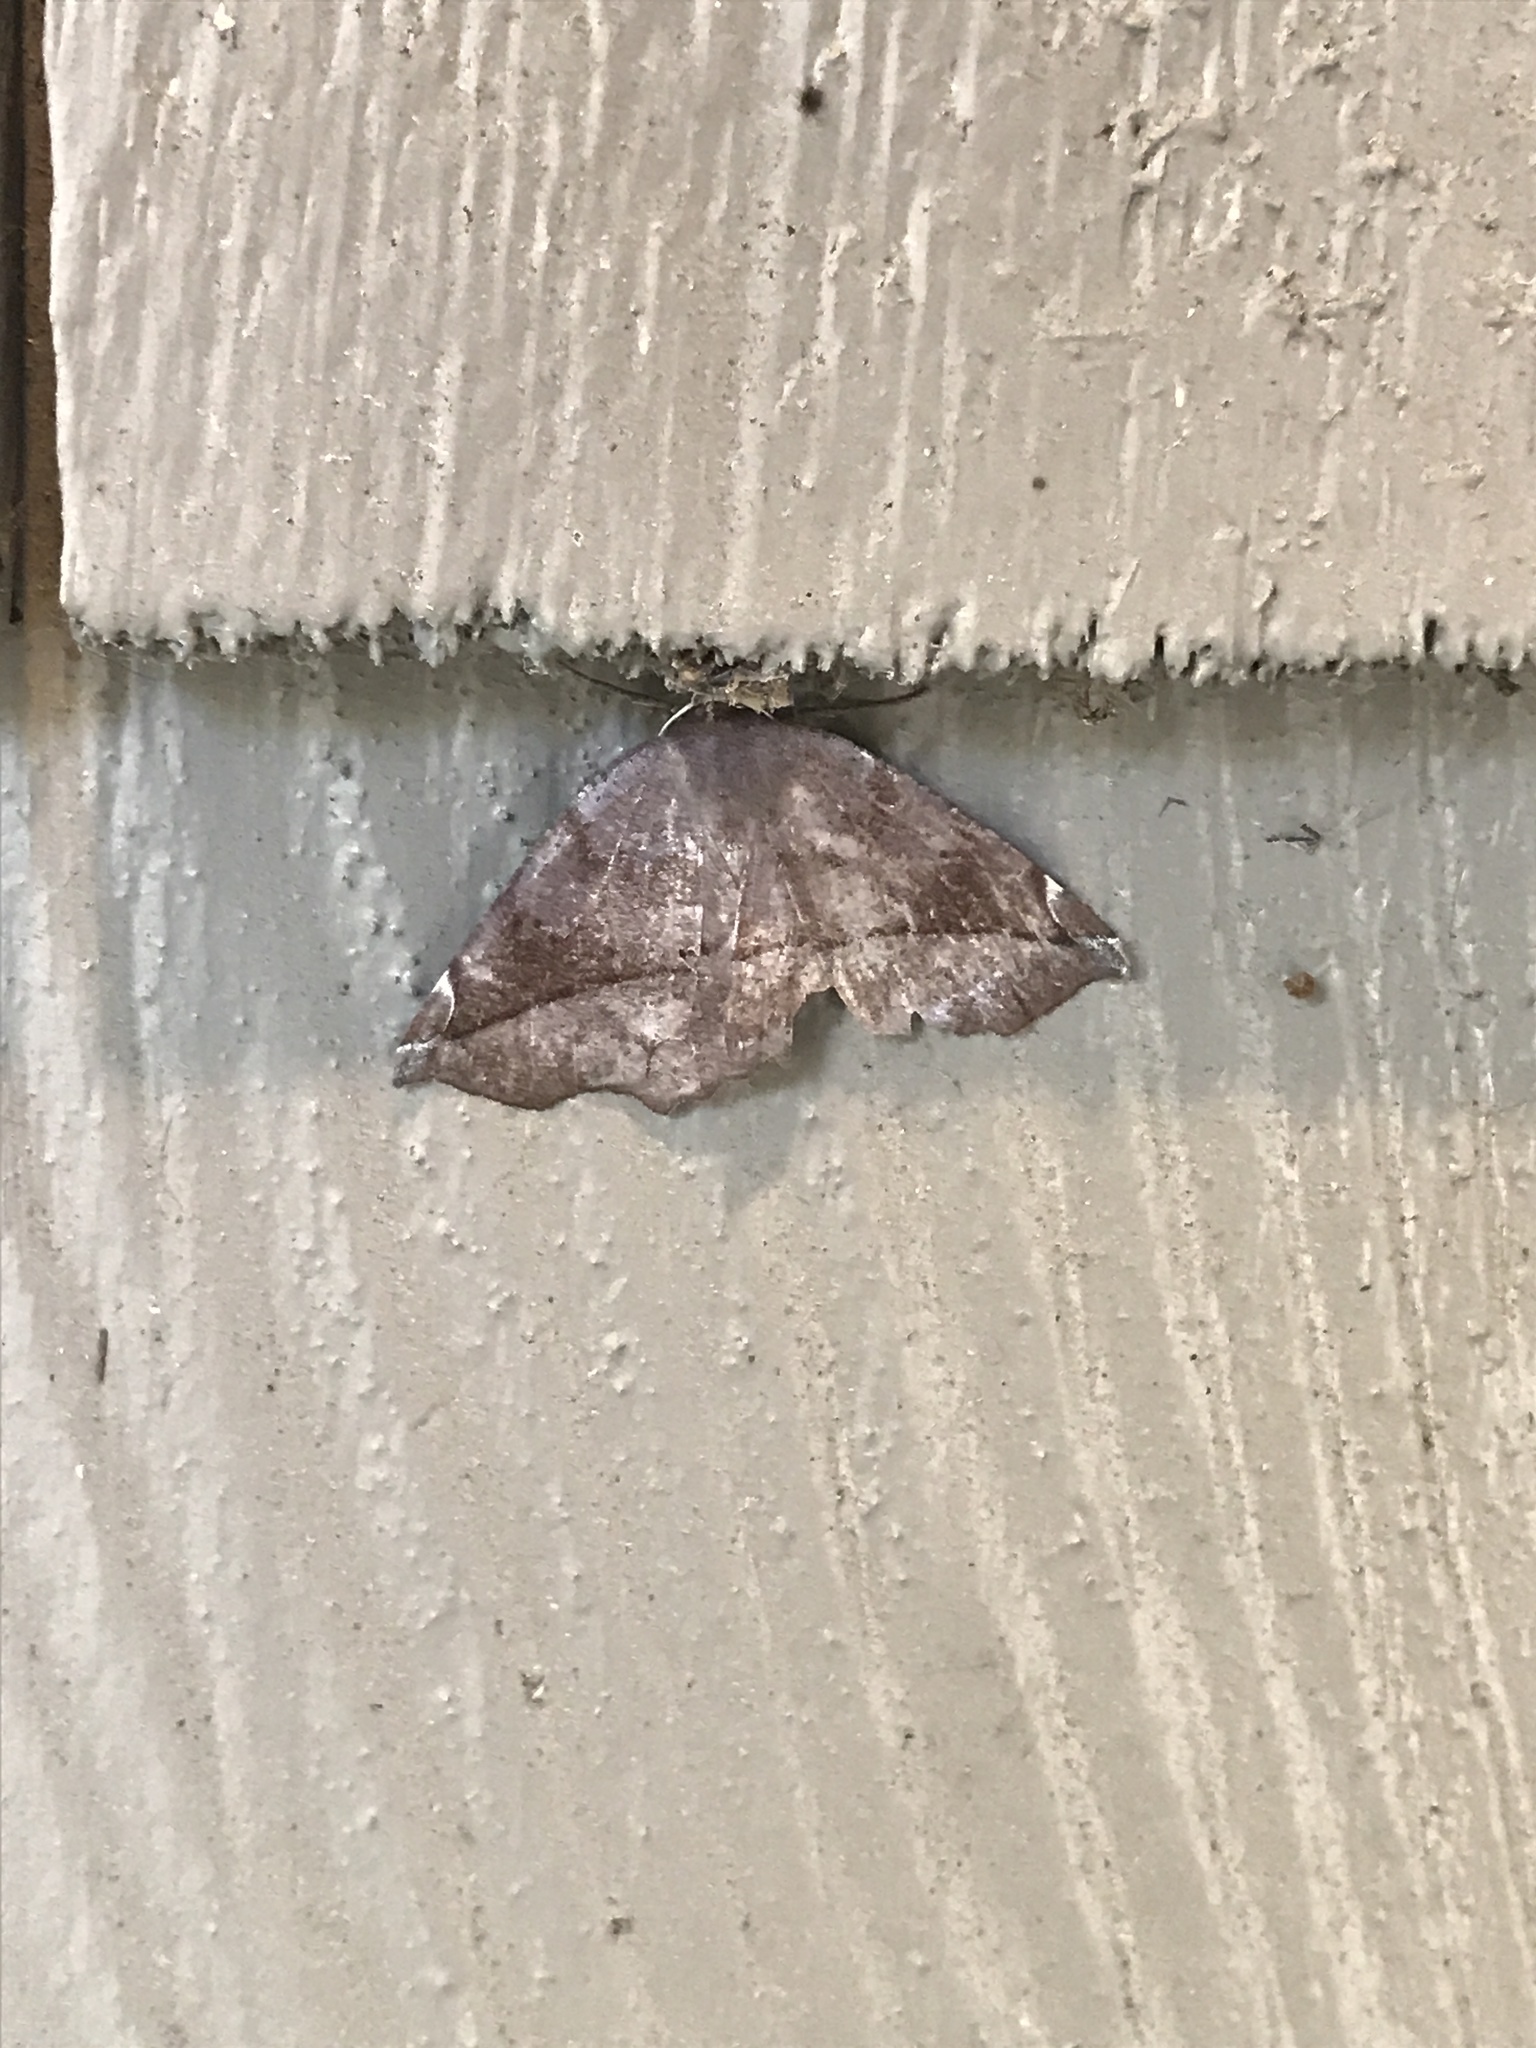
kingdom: Animalia
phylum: Arthropoda
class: Insecta
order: Lepidoptera
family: Geometridae
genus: Eutrapela
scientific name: Eutrapela clemataria
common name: Curved-toothed geometer
